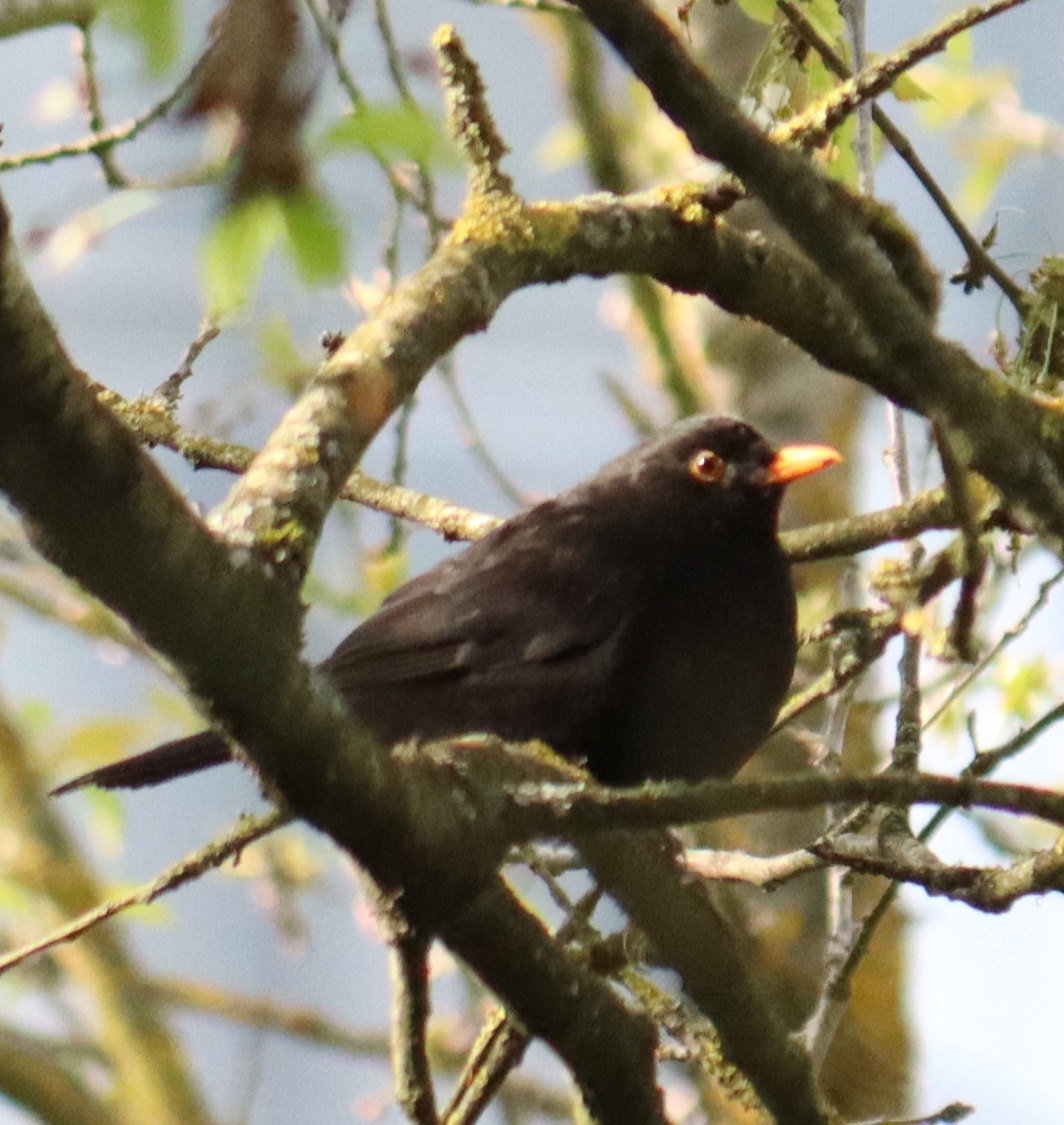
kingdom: Animalia
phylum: Chordata
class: Aves
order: Passeriformes
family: Turdidae
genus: Turdus
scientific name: Turdus merula
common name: Common blackbird
